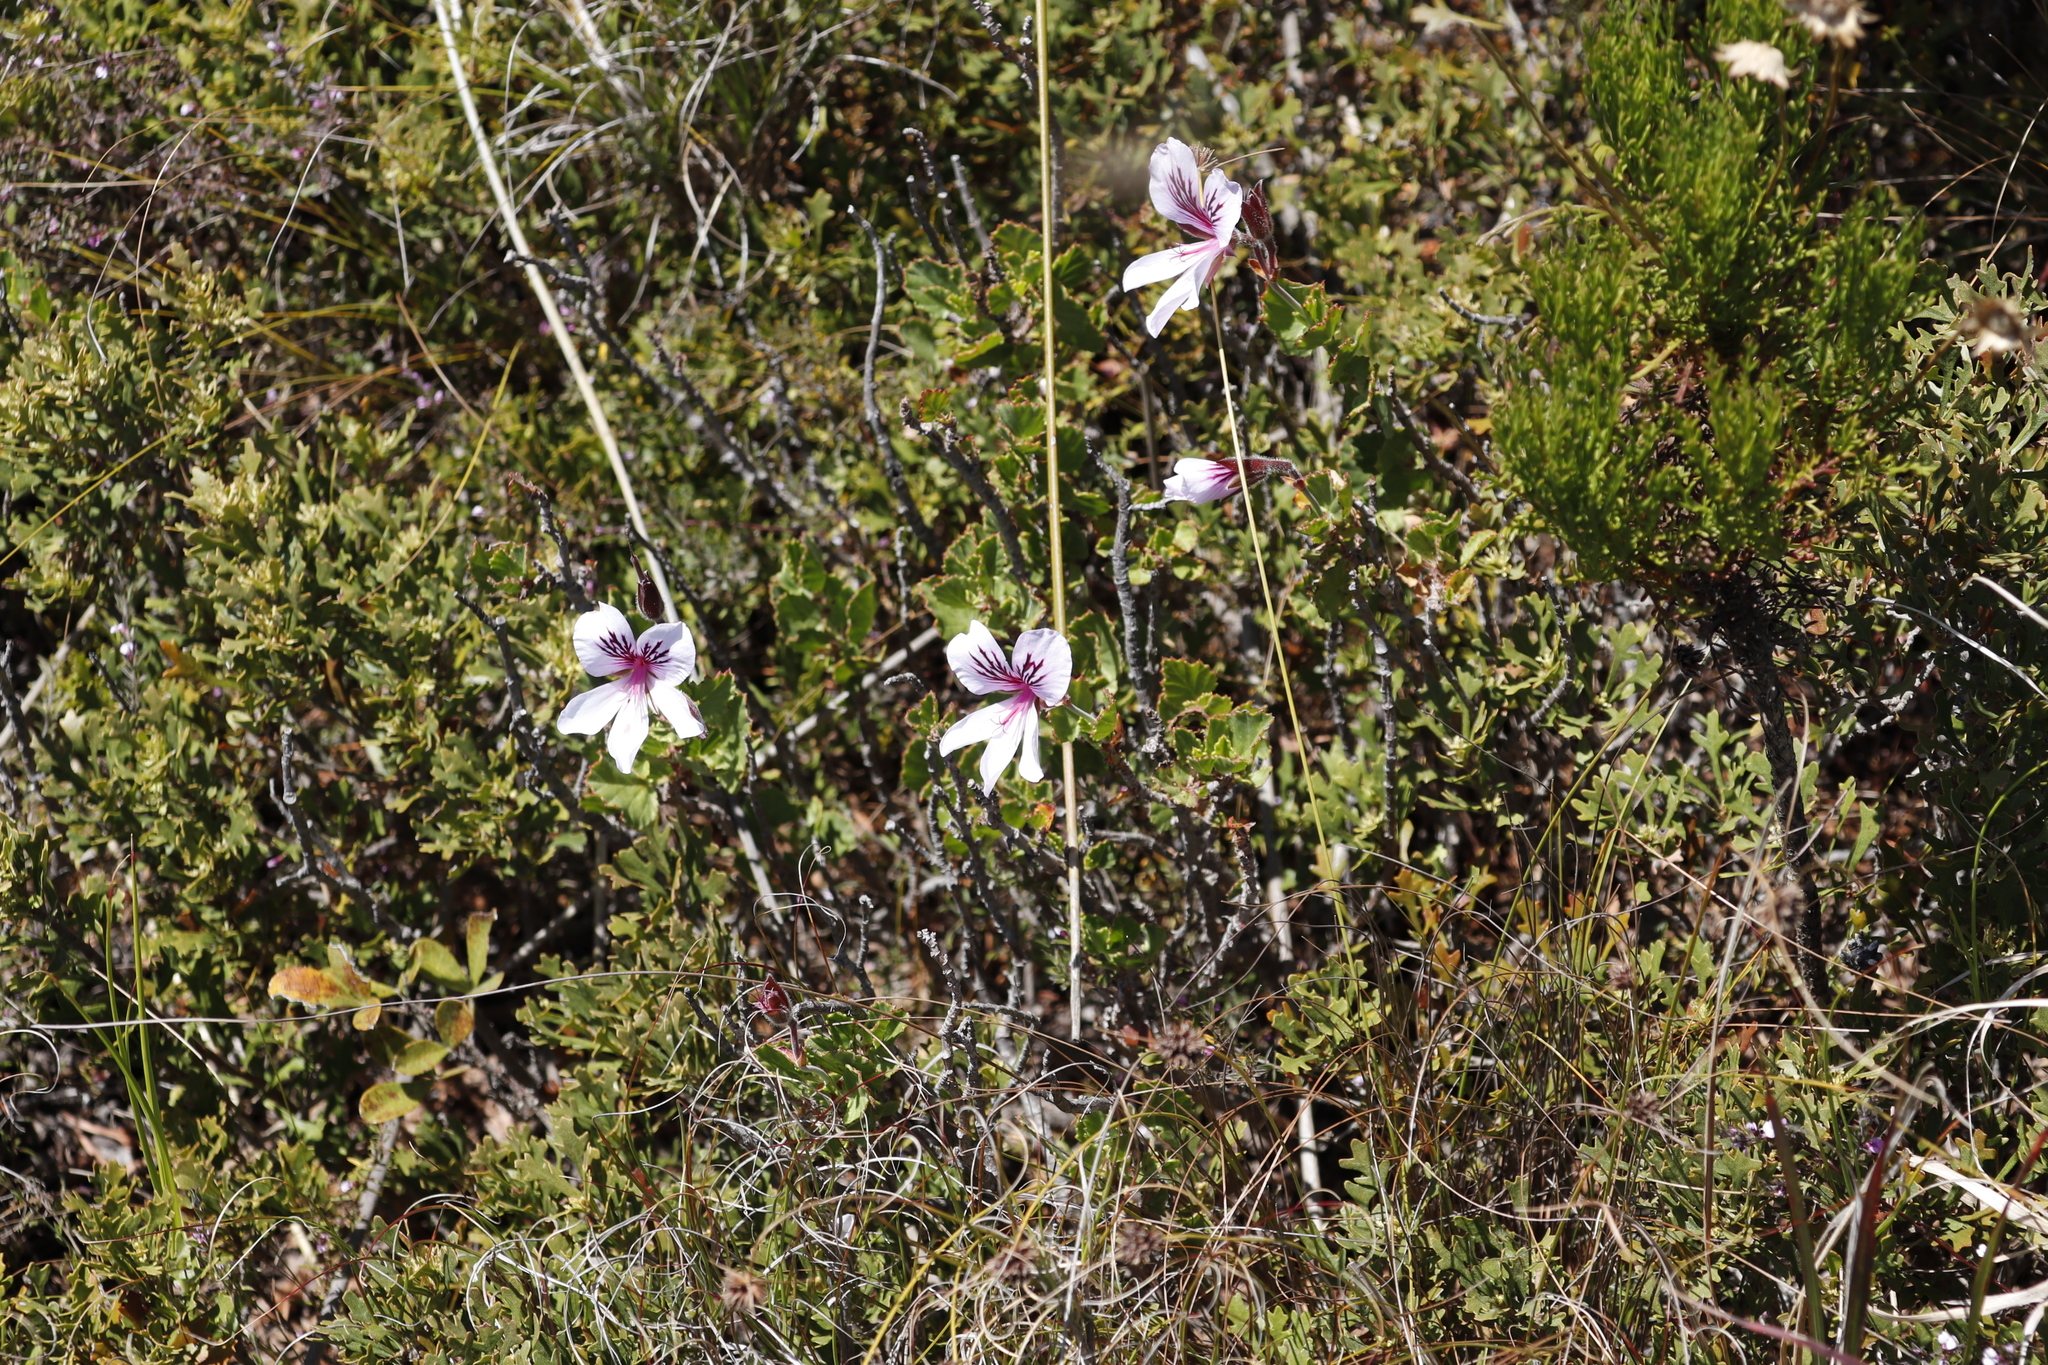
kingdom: Plantae
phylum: Tracheophyta
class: Magnoliopsida
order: Geraniales
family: Geraniaceae
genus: Pelargonium
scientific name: Pelargonium betulinum
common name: Birch-leaf pelargonium
